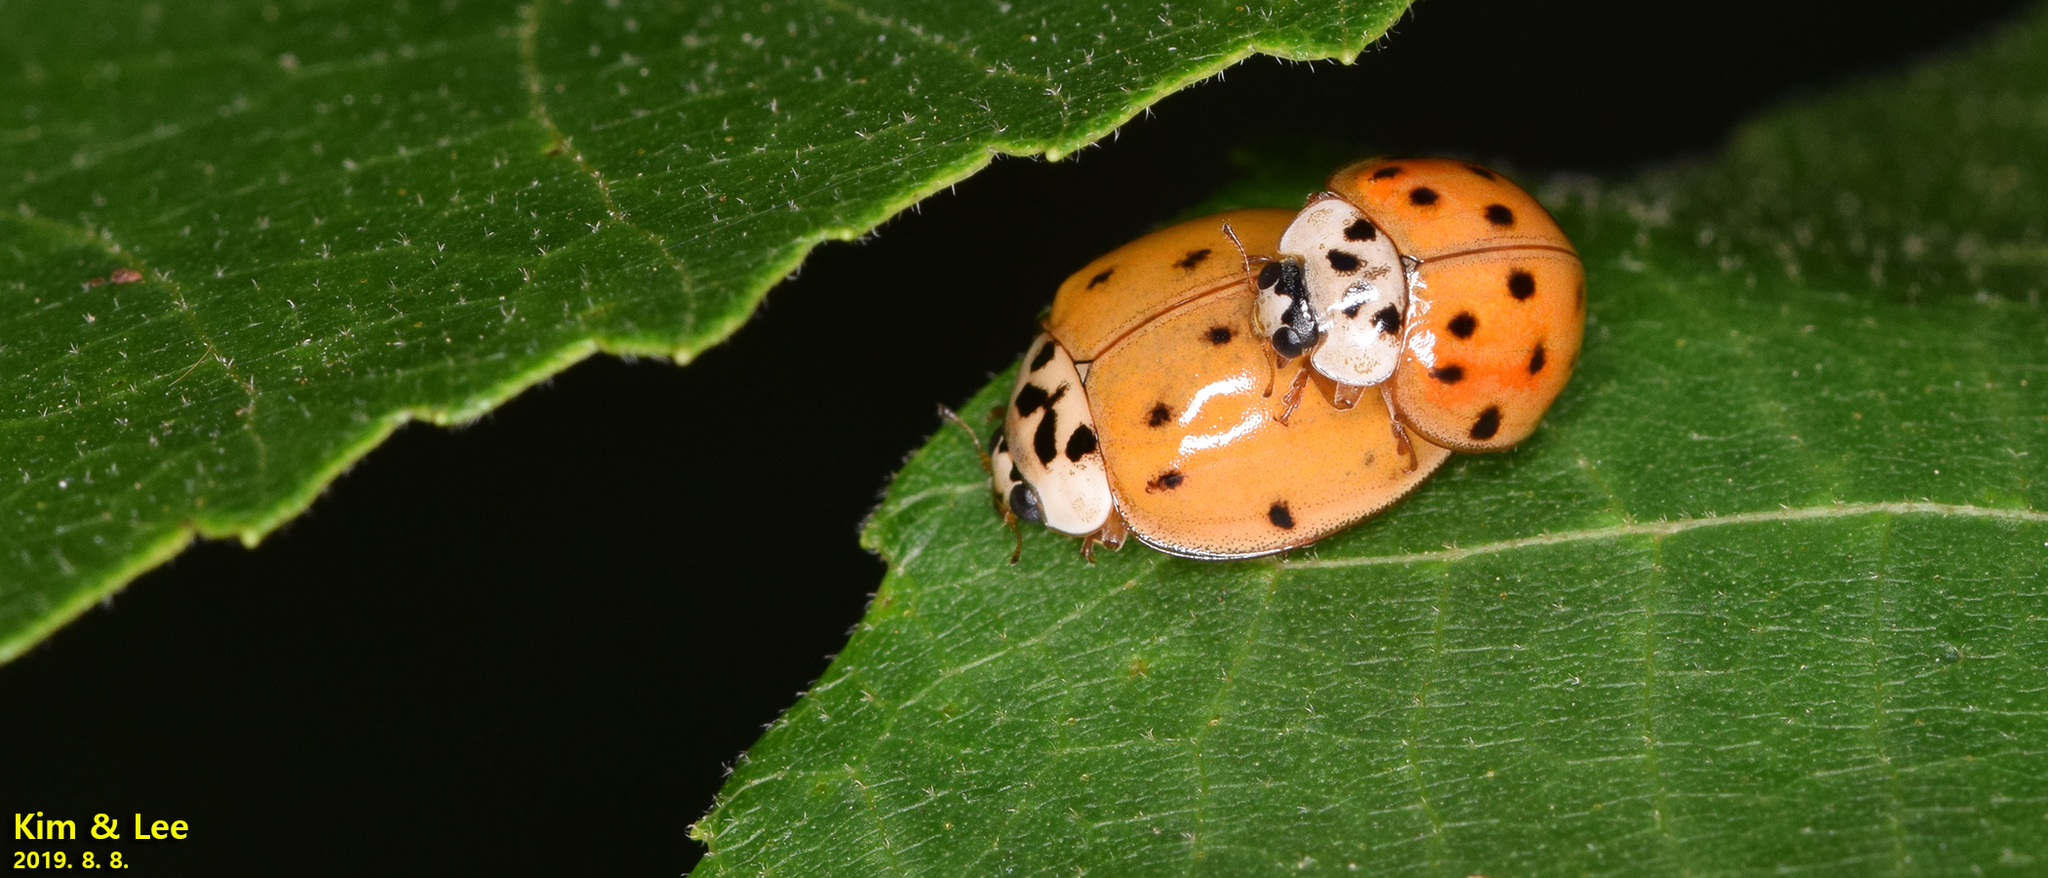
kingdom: Animalia
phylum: Arthropoda
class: Insecta
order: Coleoptera
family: Coccinellidae
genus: Harmonia
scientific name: Harmonia axyridis
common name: Harlequin ladybird
